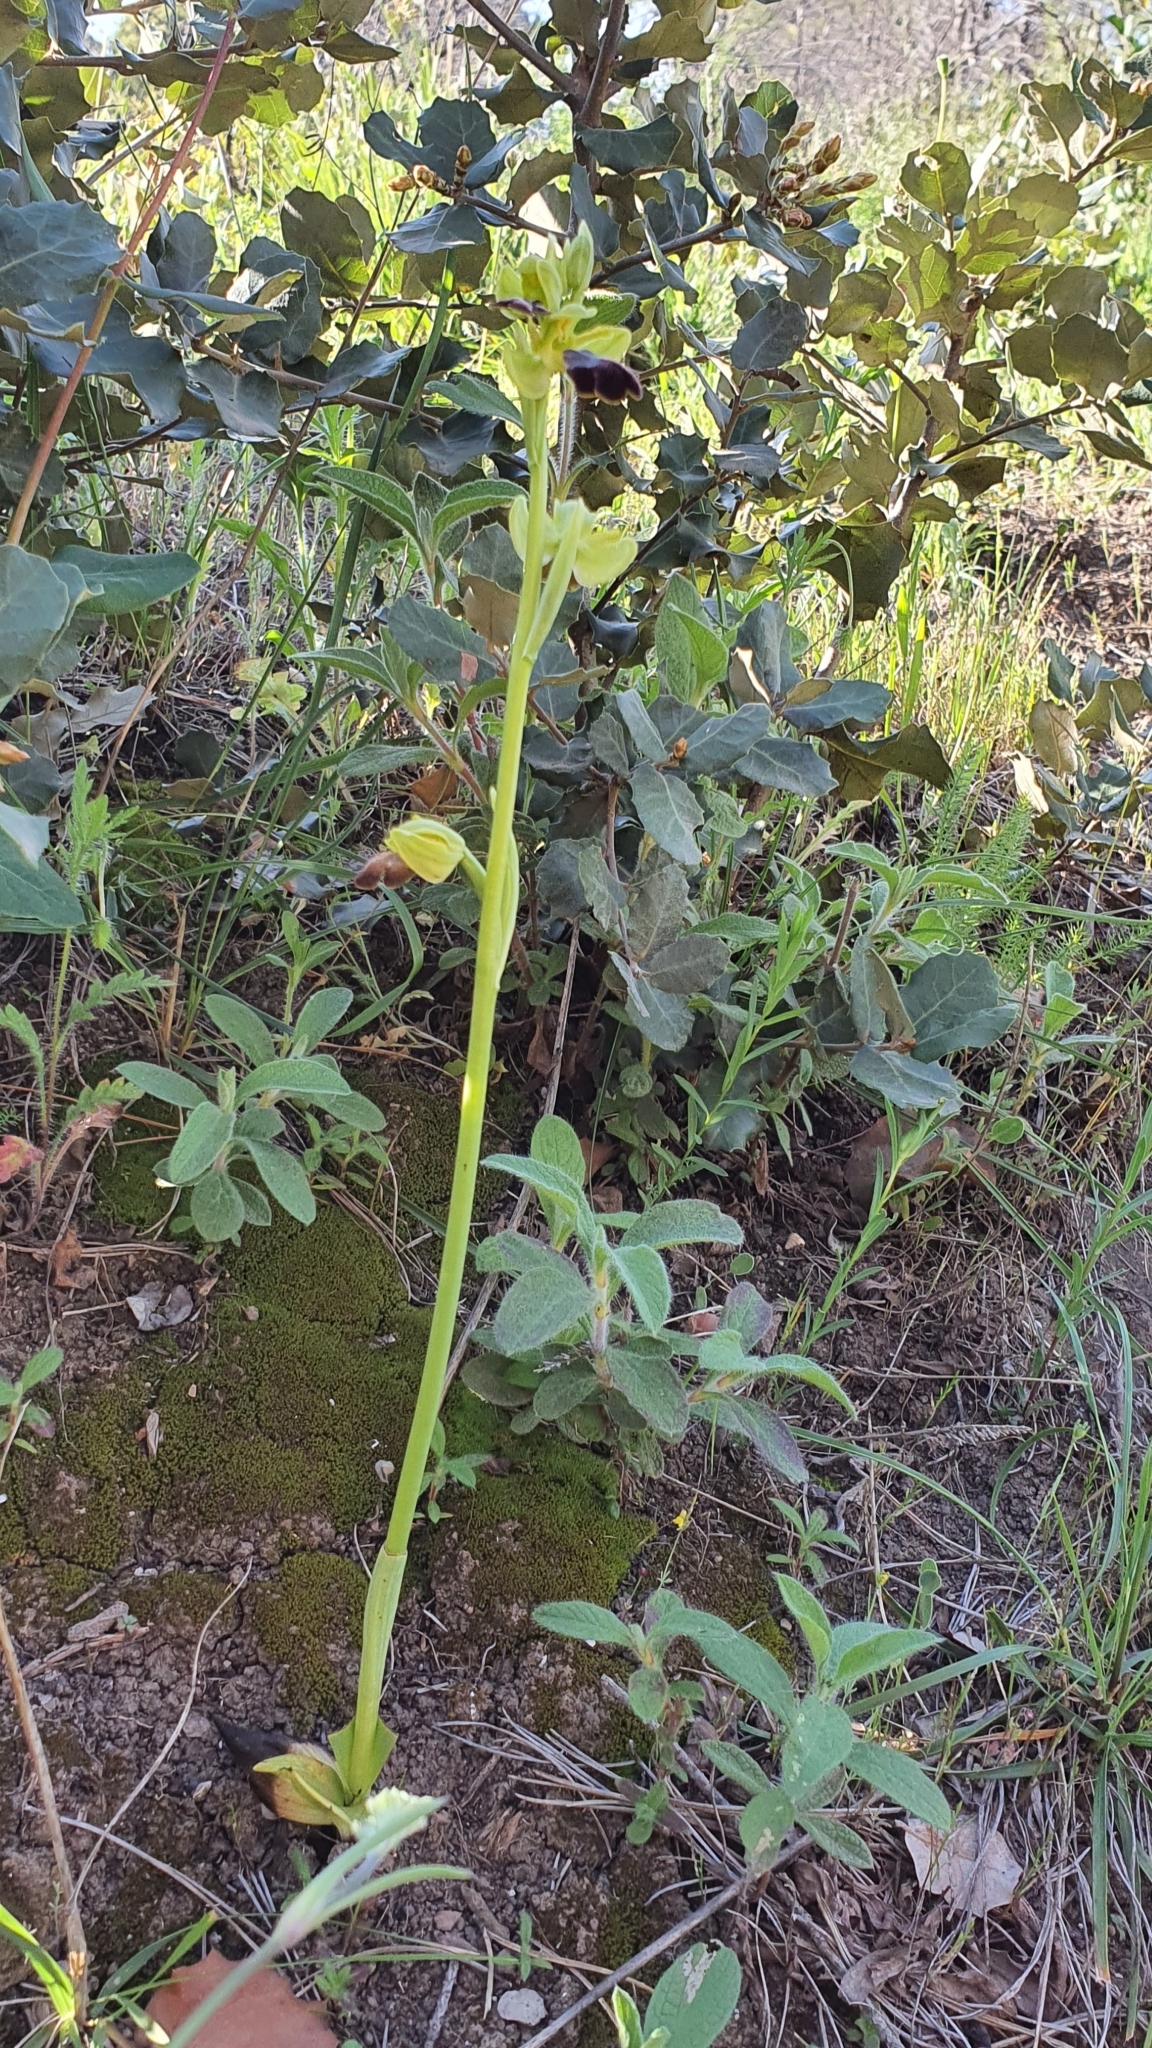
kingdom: Plantae
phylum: Tracheophyta
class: Liliopsida
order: Asparagales
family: Orchidaceae
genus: Ophrys
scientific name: Ophrys fusca
